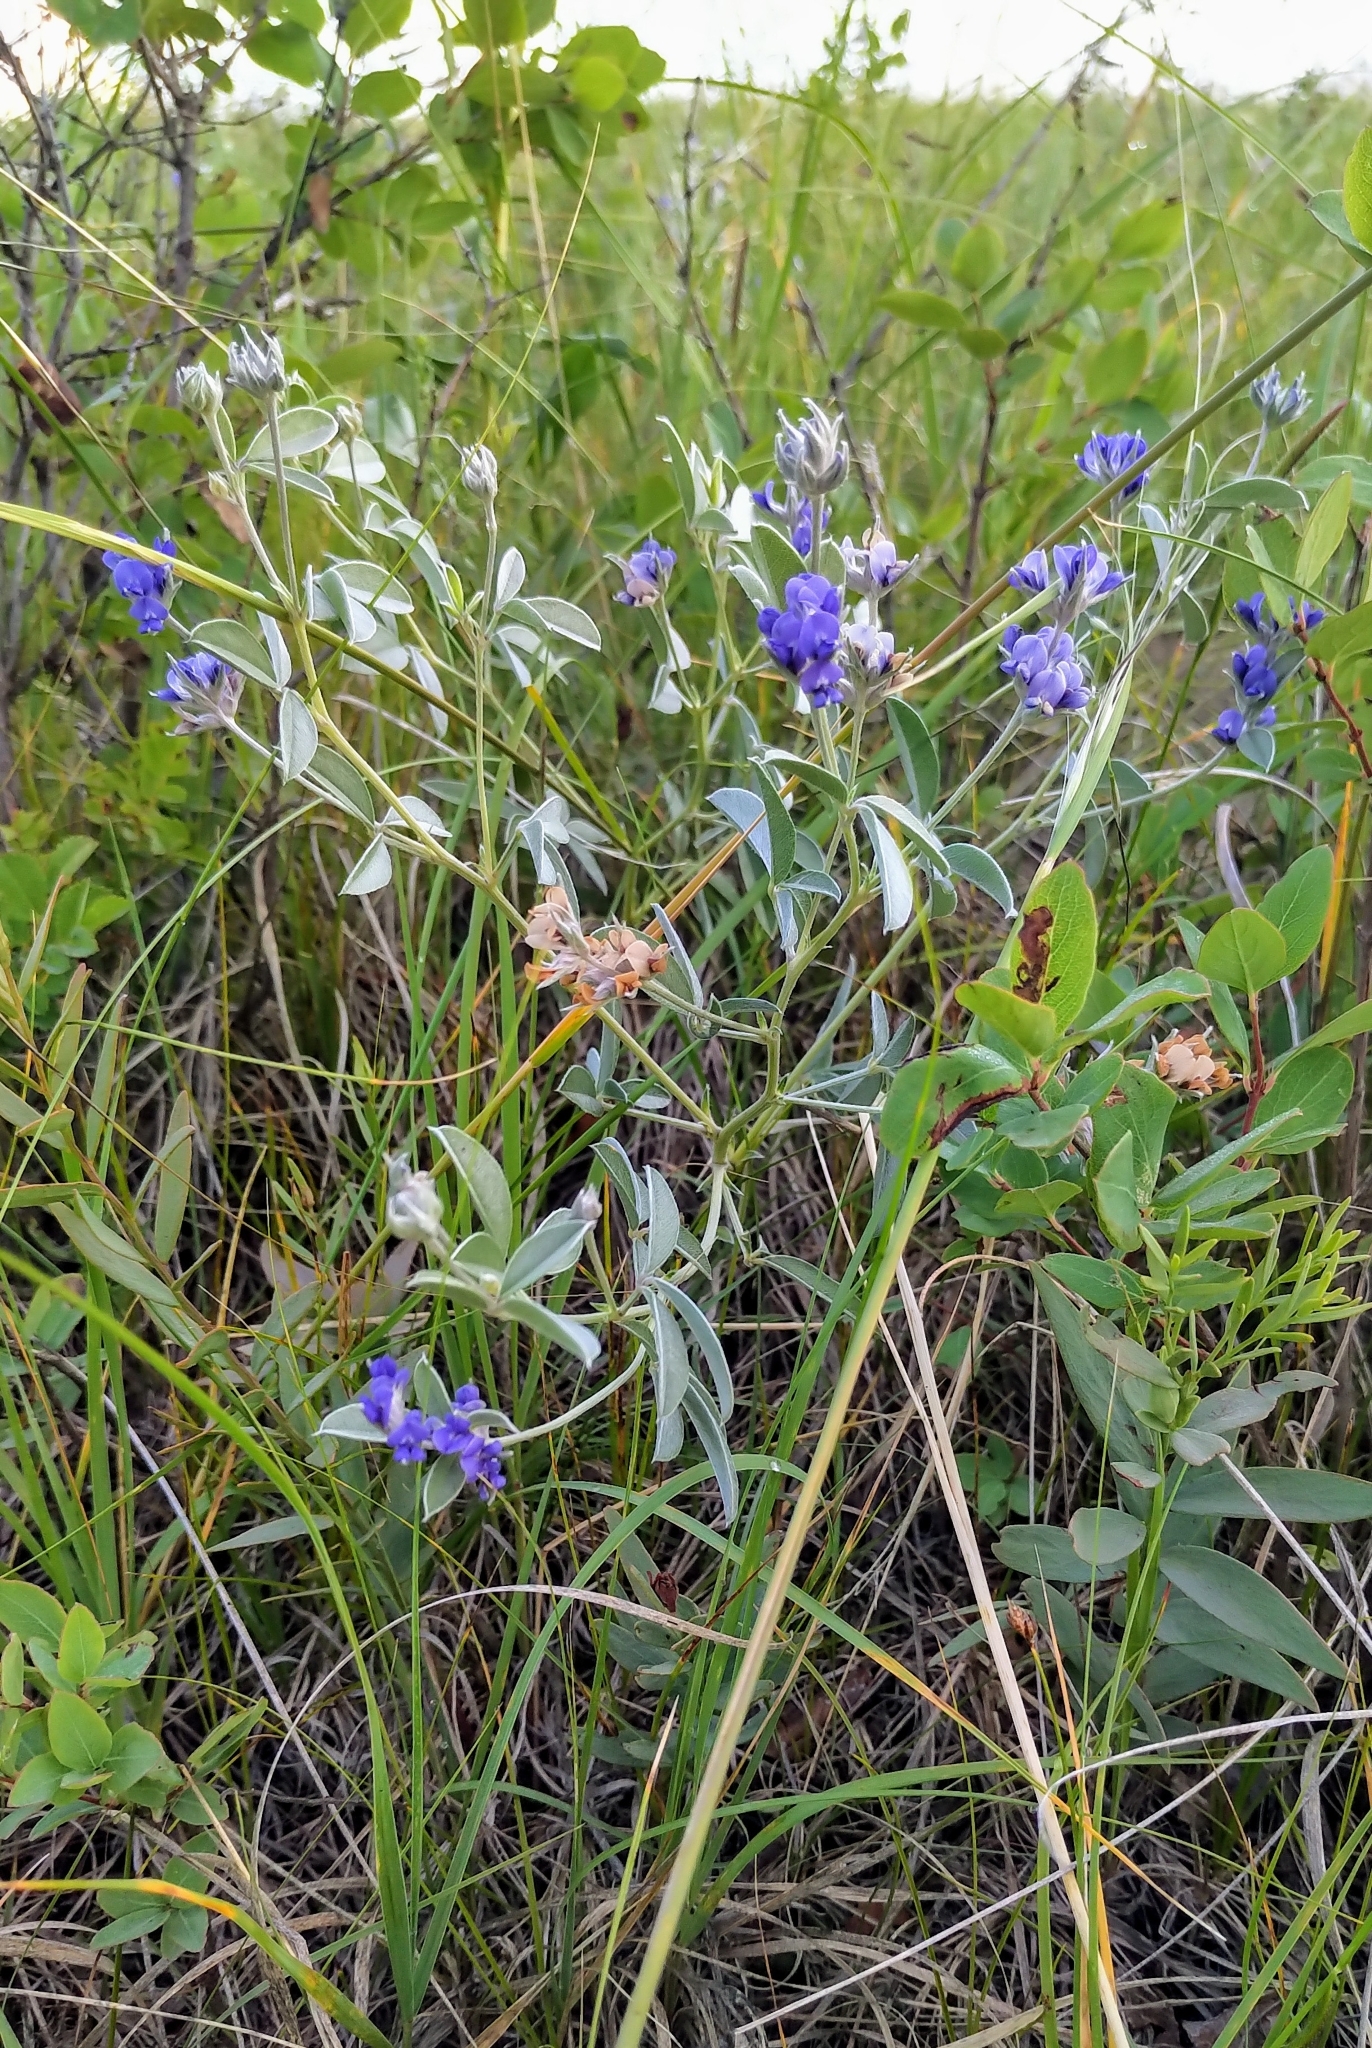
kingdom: Plantae
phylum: Tracheophyta
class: Magnoliopsida
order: Fabales
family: Fabaceae
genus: Pediomelum
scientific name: Pediomelum argophyllum
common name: Silver-leaved indian breadroot
